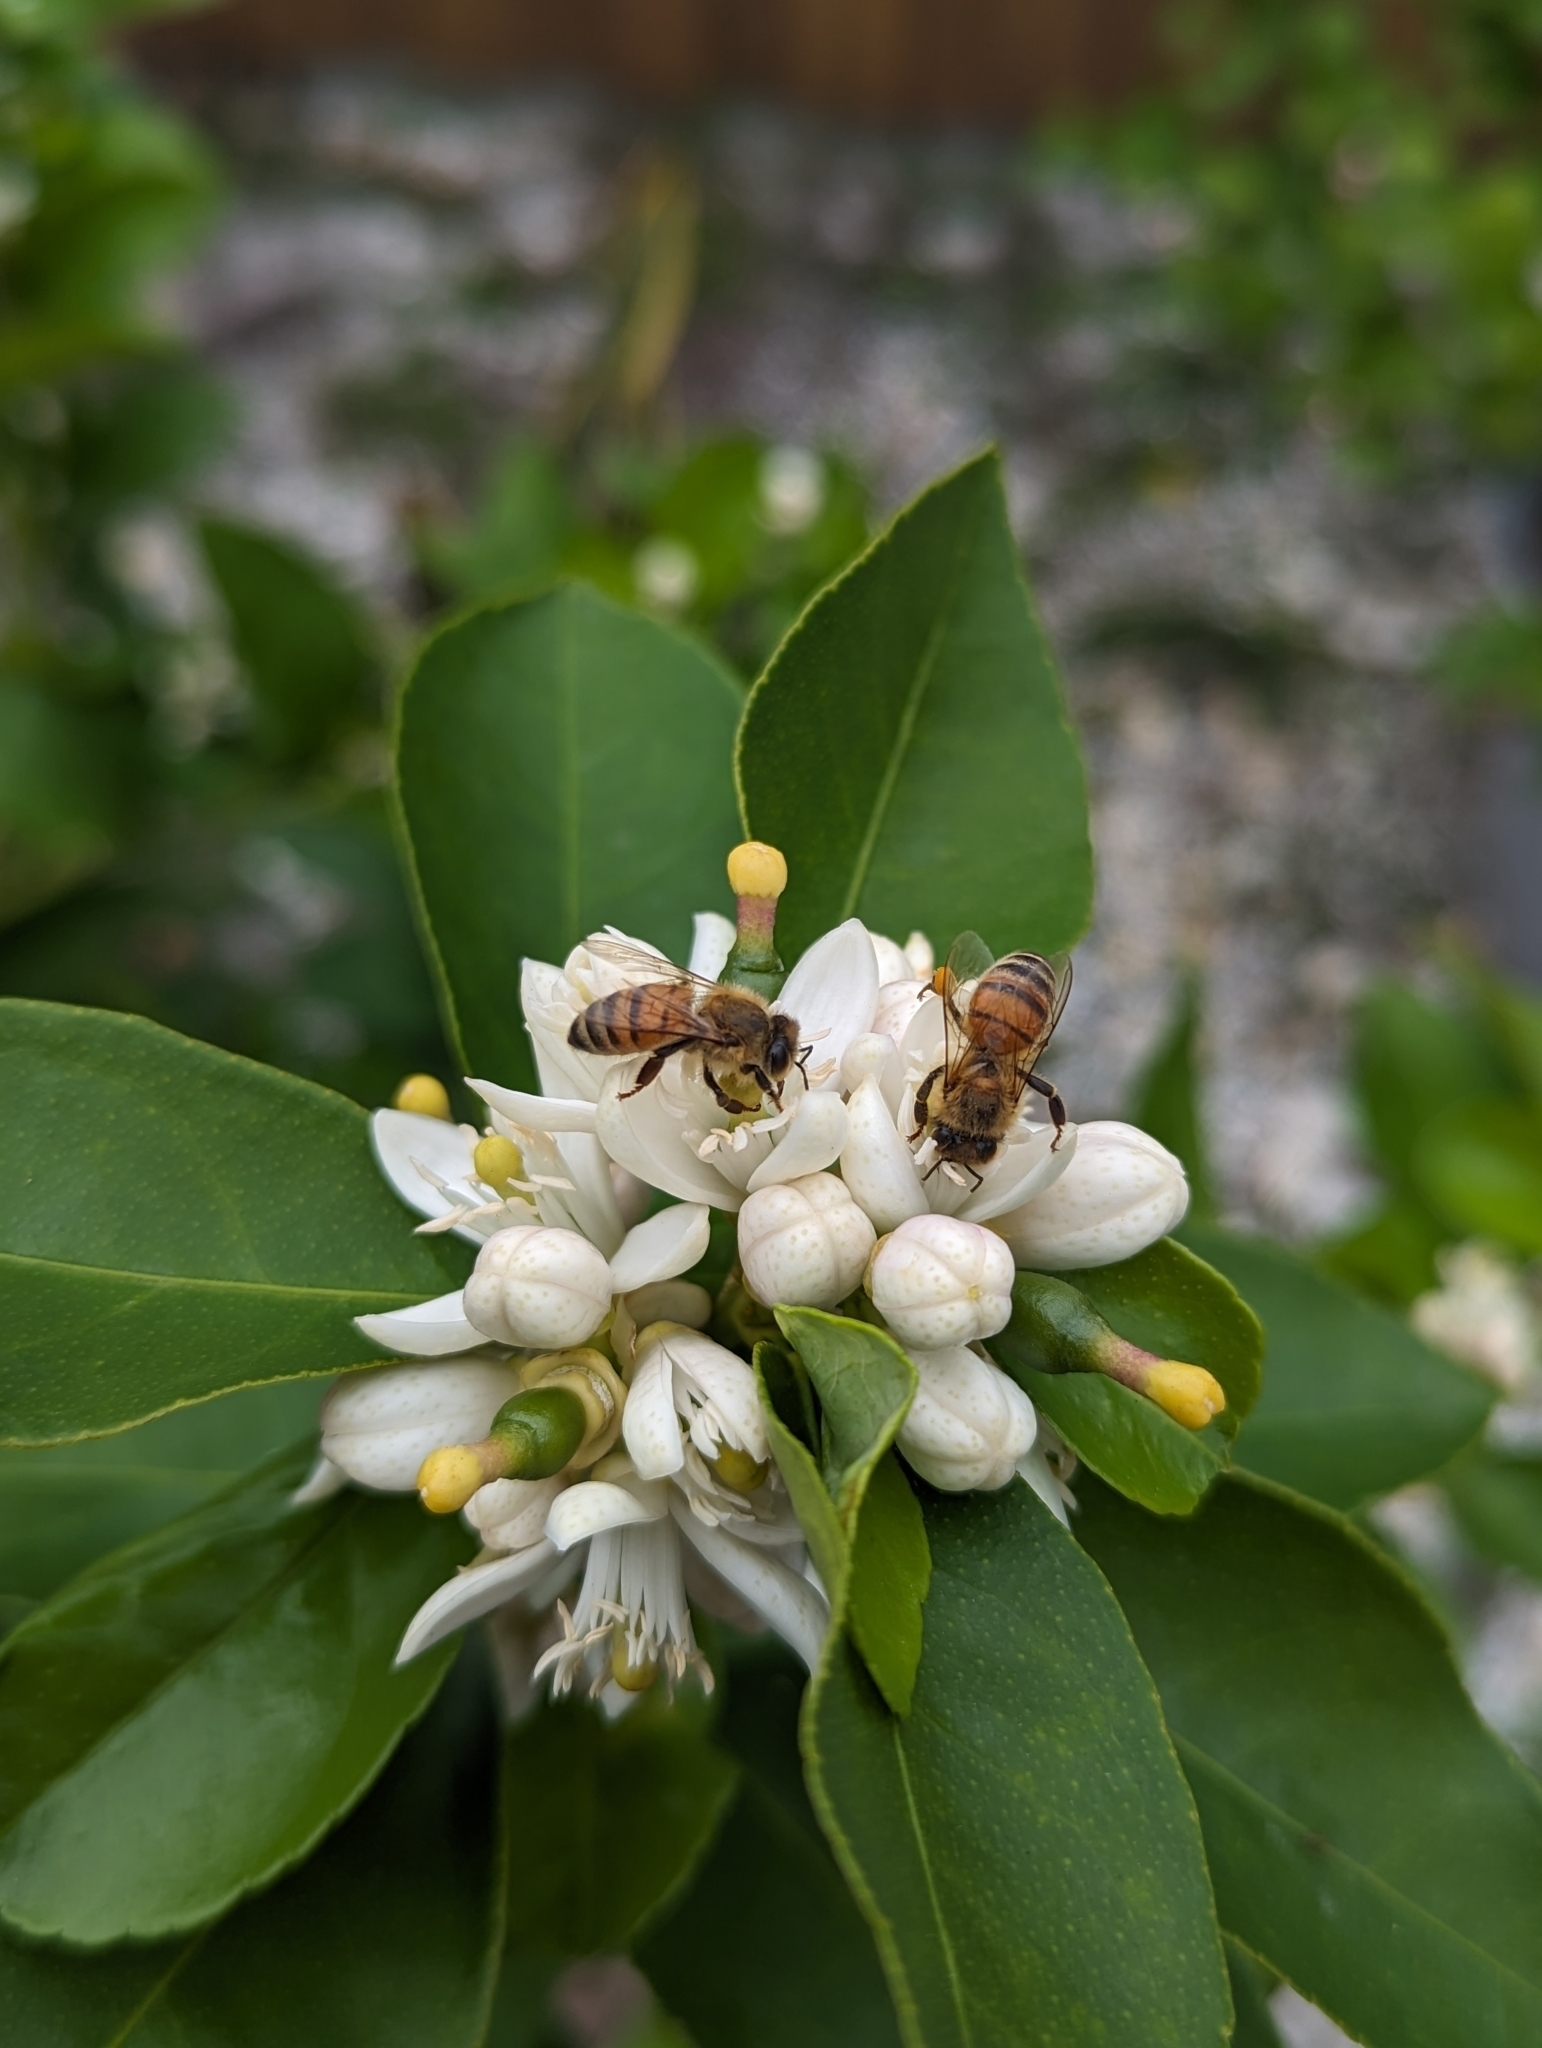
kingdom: Animalia
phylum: Arthropoda
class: Insecta
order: Hymenoptera
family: Apidae
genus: Apis
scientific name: Apis mellifera
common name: Honey bee
